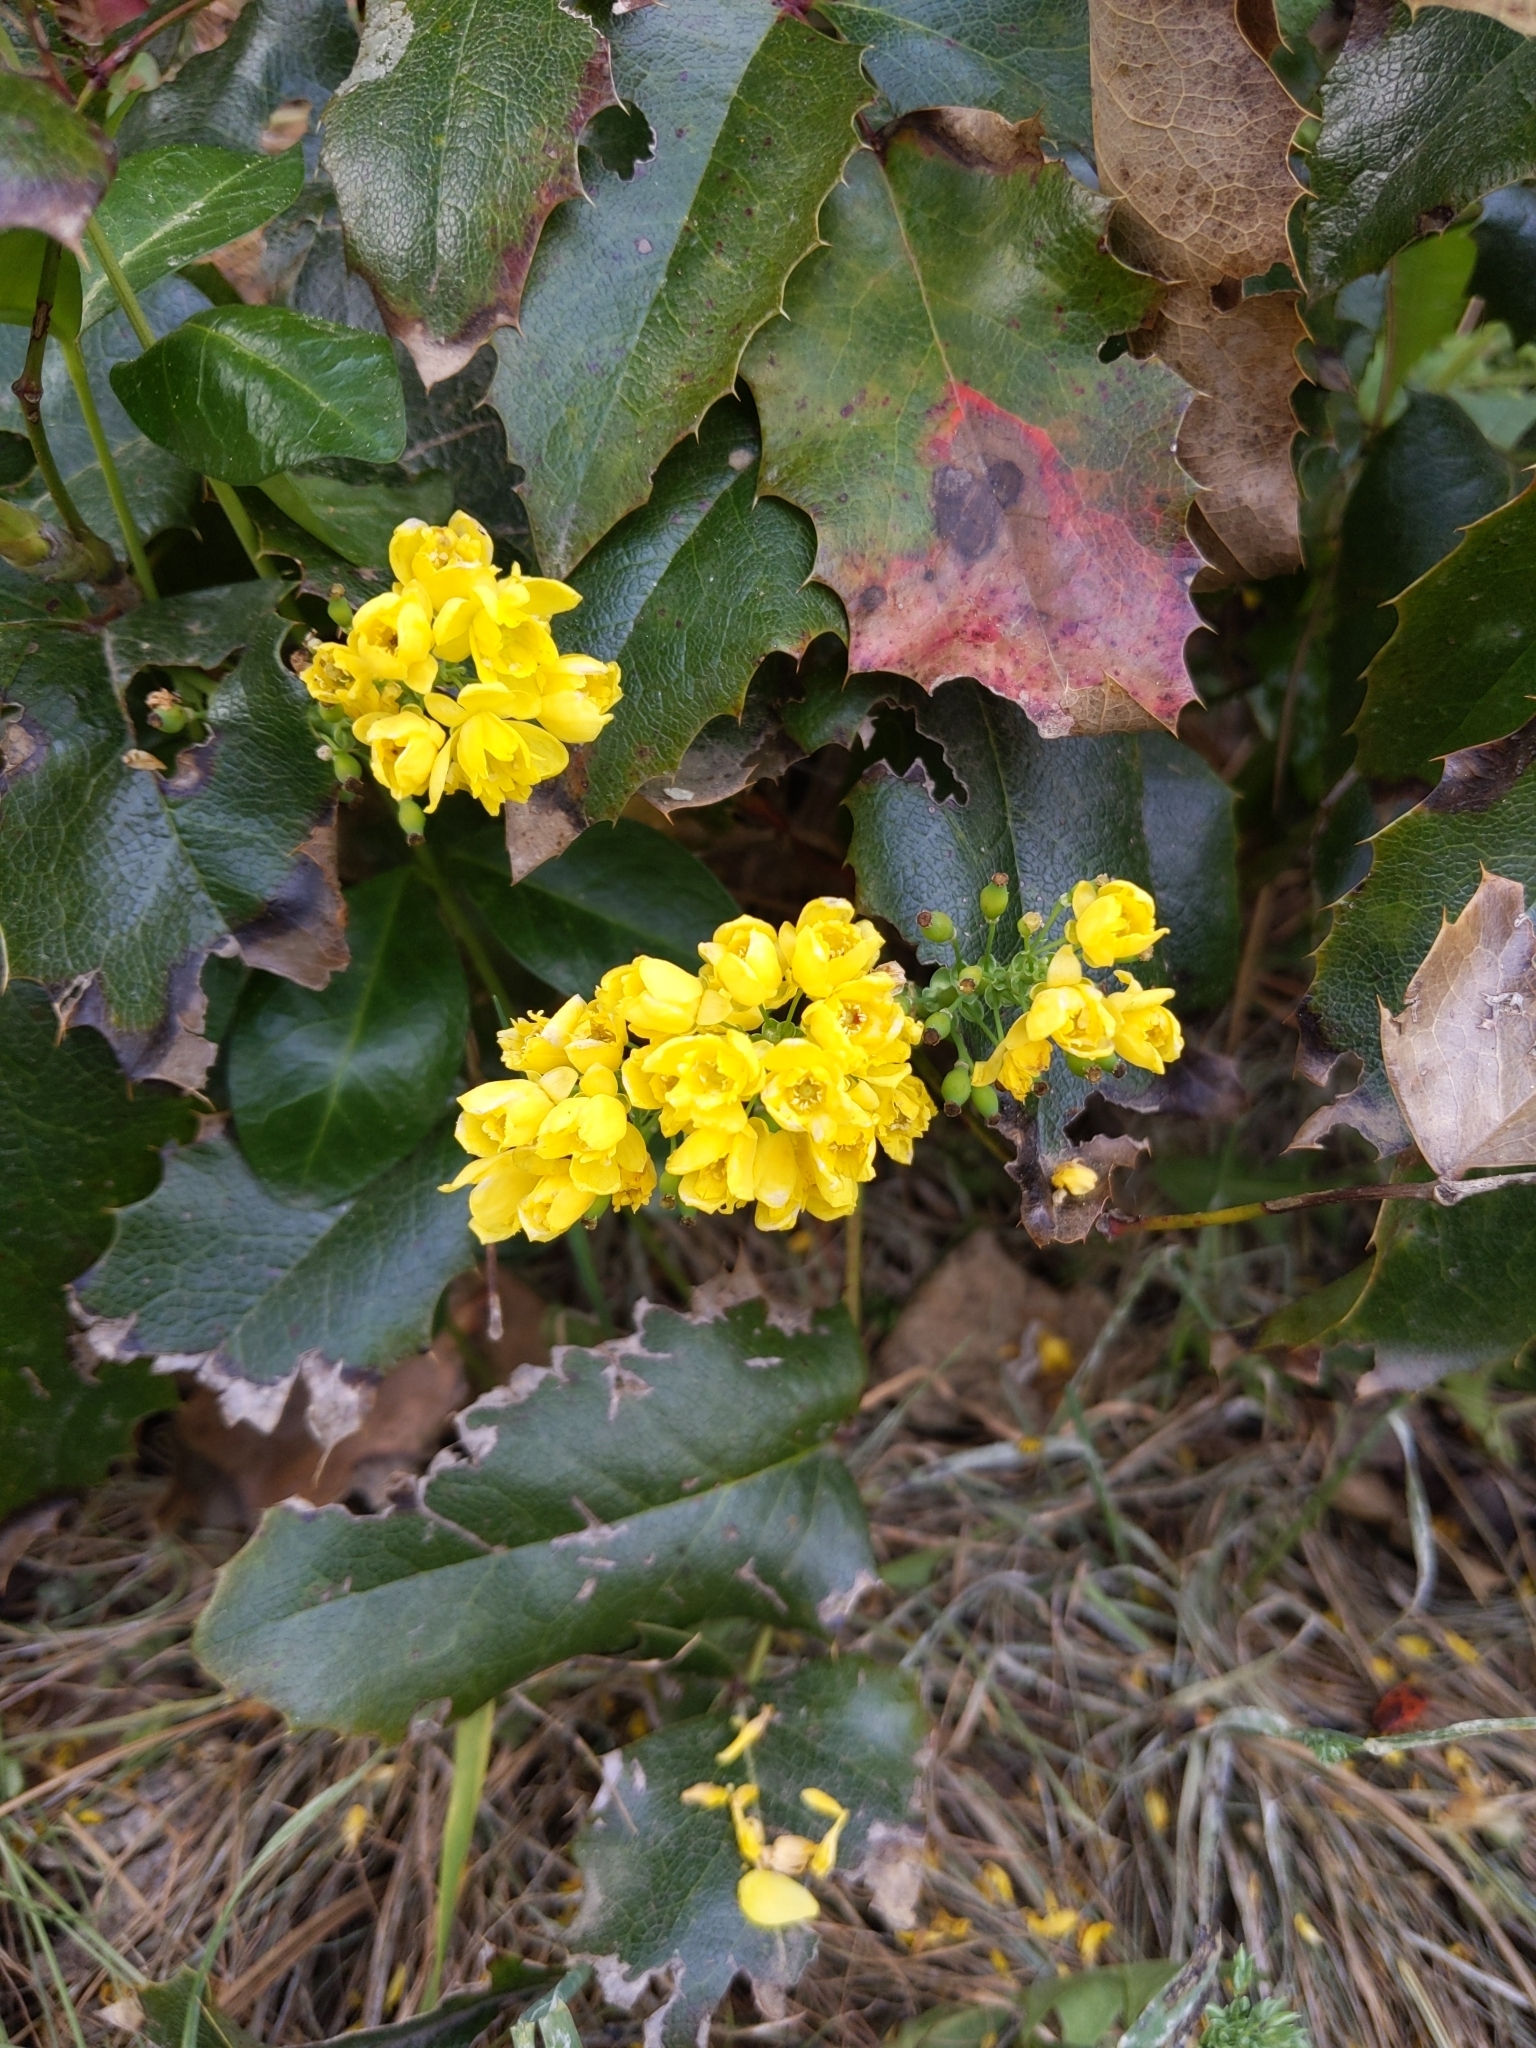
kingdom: Plantae
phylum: Tracheophyta
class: Magnoliopsida
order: Ranunculales
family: Berberidaceae
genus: Mahonia
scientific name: Mahonia aquifolium
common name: Oregon-grape
